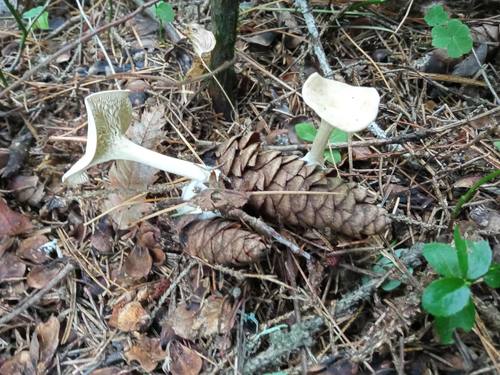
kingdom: Fungi
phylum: Basidiomycota
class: Agaricomycetes
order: Agaricales
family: Tricholomataceae
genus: Clitocybe
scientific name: Clitocybe
